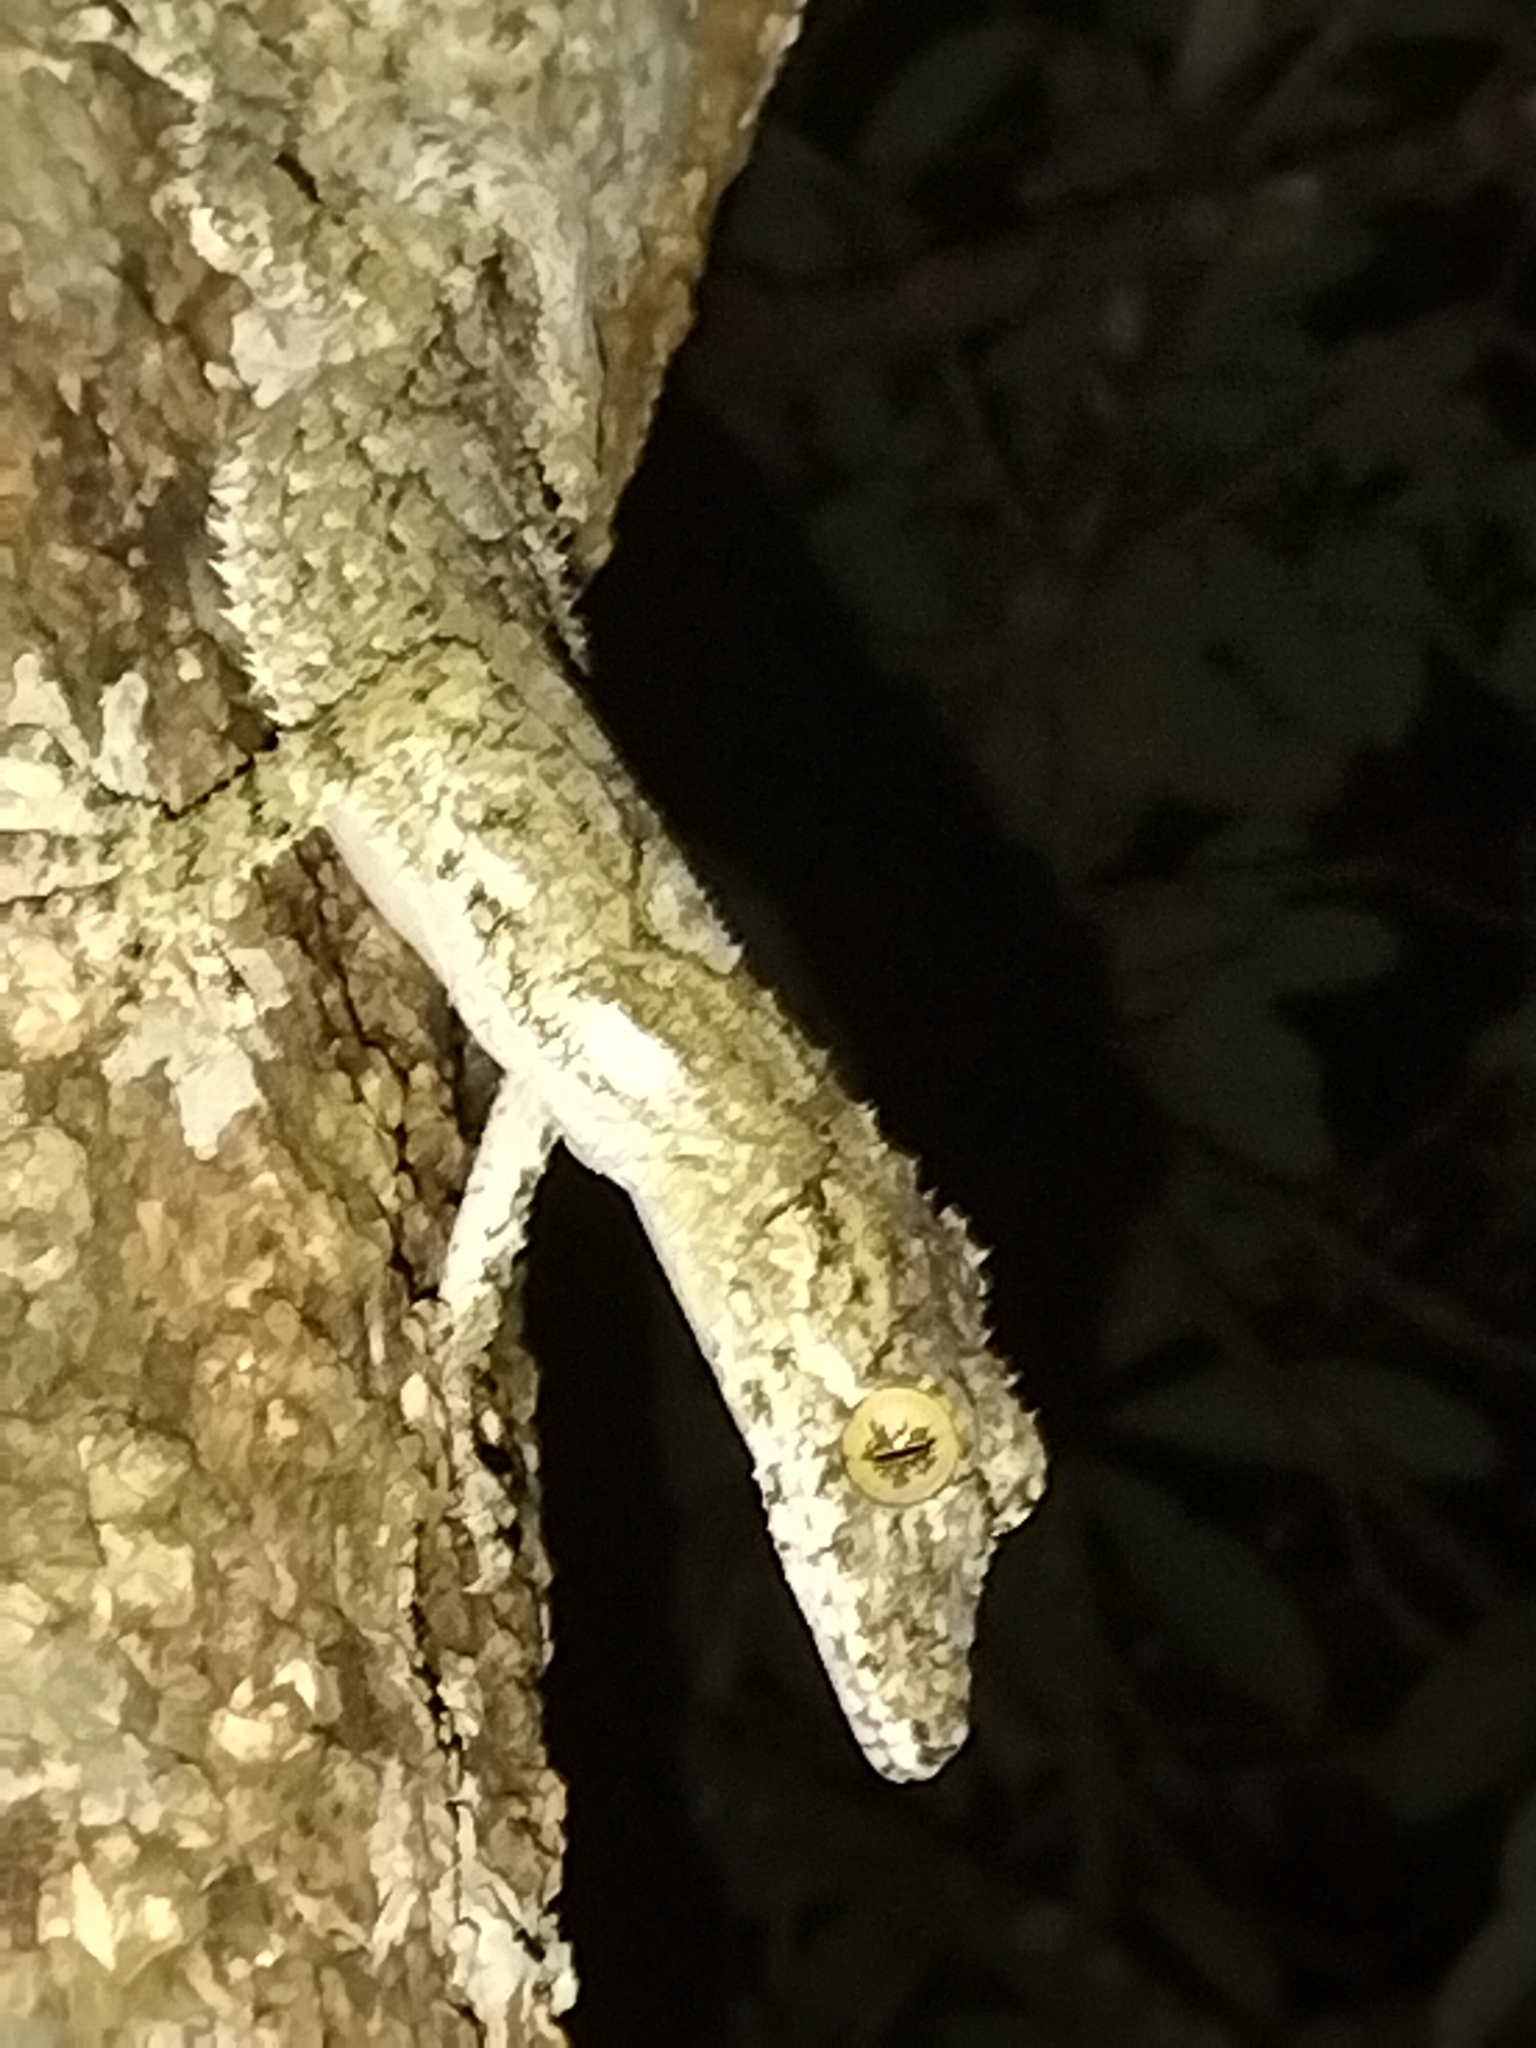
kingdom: Animalia
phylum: Chordata
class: Squamata
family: Carphodactylidae
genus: Saltuarius
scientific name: Saltuarius cornutus
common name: Leaf-tailed gecko
